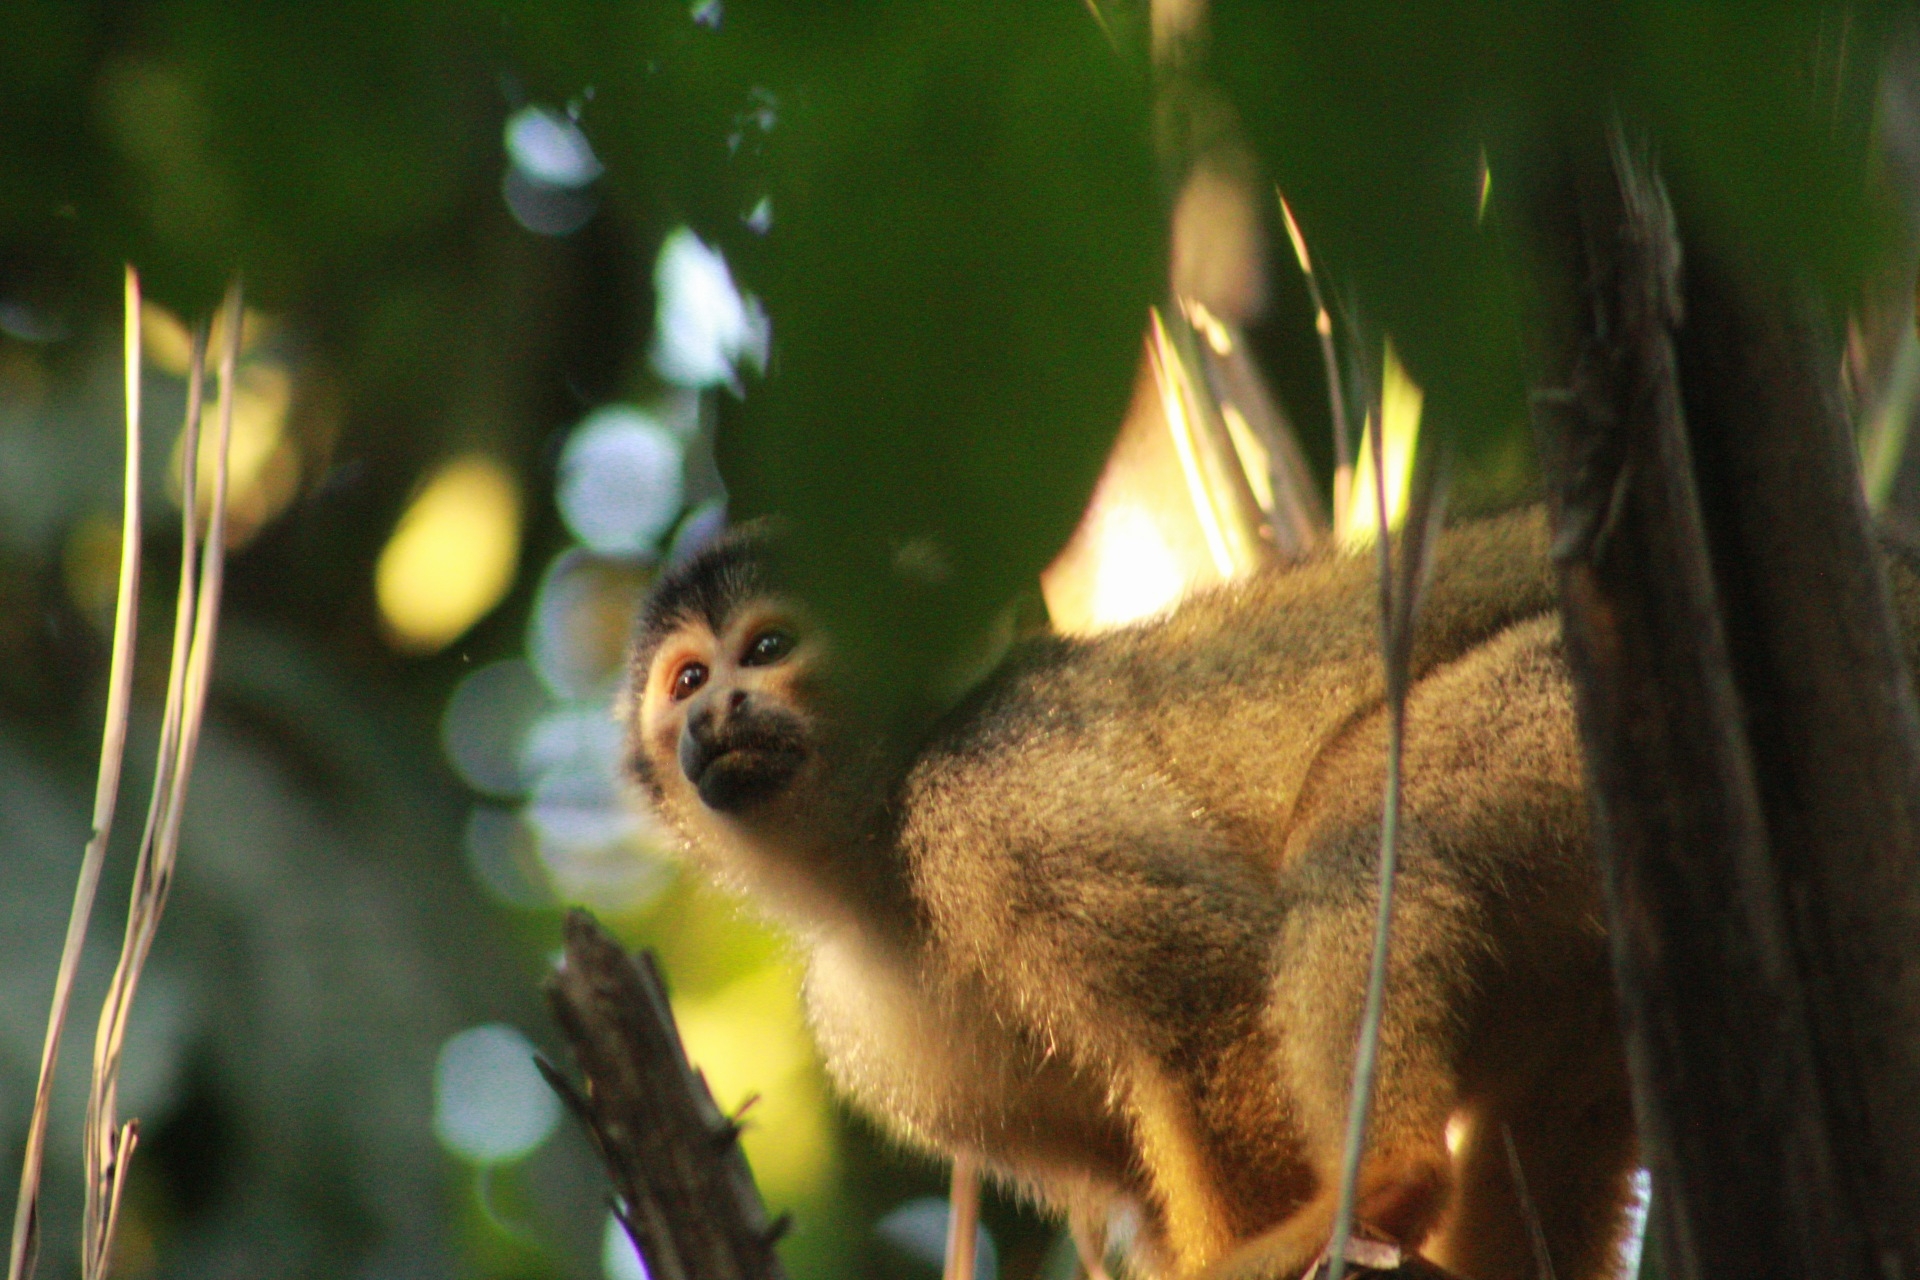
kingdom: Animalia
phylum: Chordata
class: Mammalia
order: Primates
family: Cebidae
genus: Saimiri
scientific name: Saimiri boliviensis
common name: Black-capped squirrel monkey
